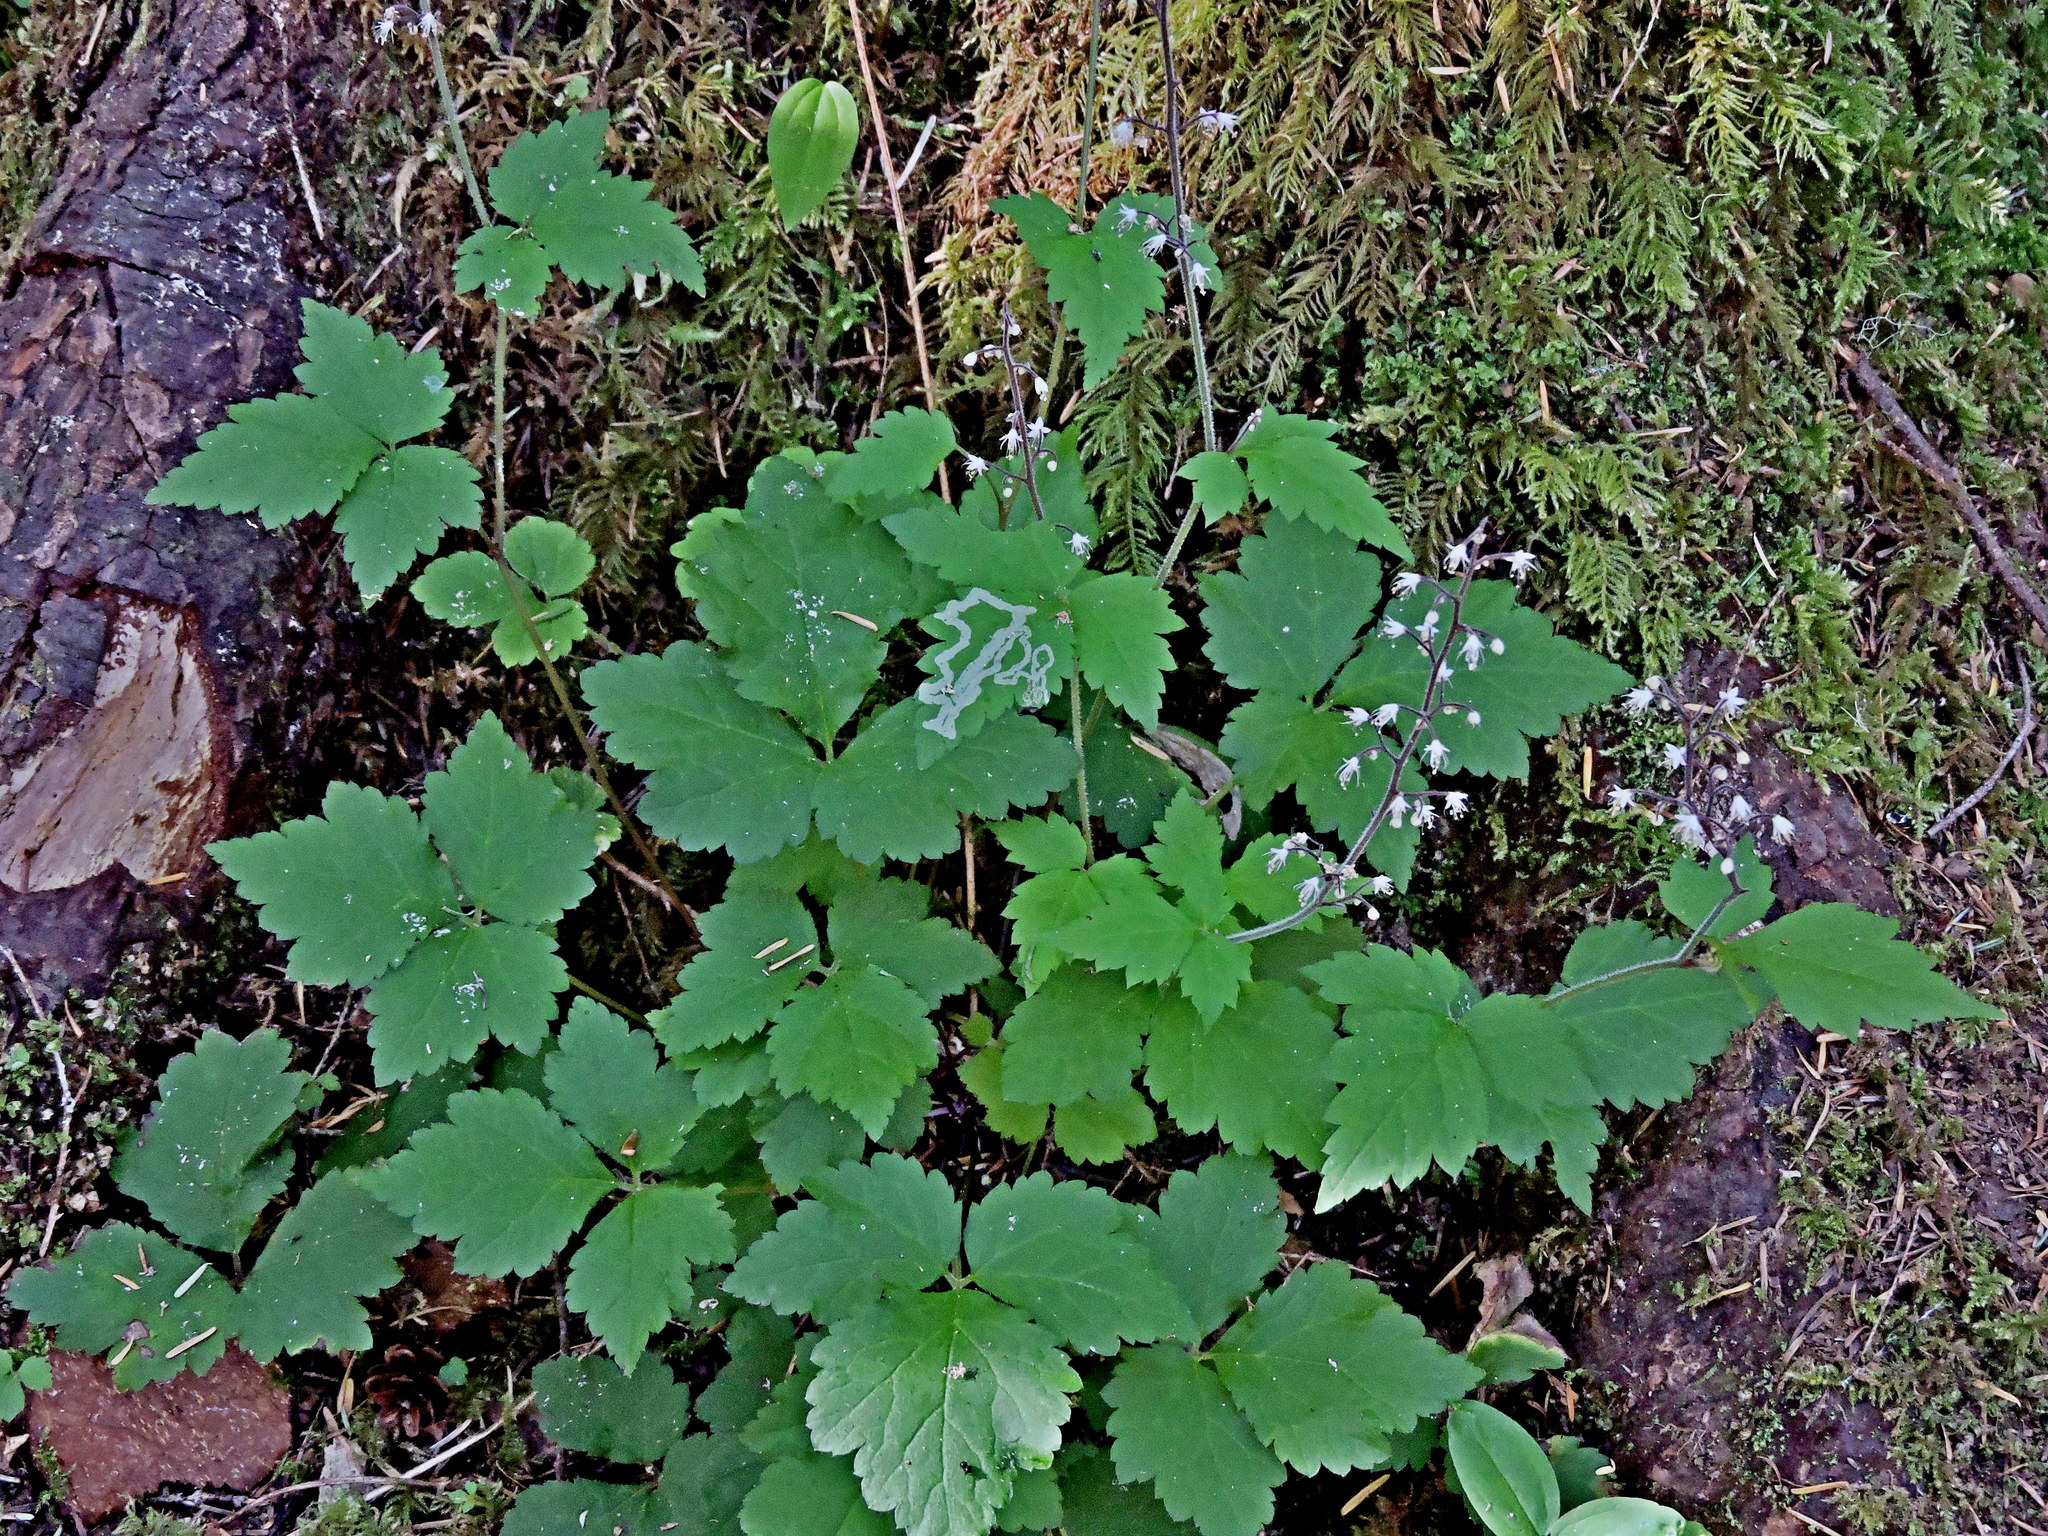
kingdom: Plantae
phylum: Tracheophyta
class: Magnoliopsida
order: Saxifragales
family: Saxifragaceae
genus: Tiarella
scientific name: Tiarella trifoliata
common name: Sugar-scoop
